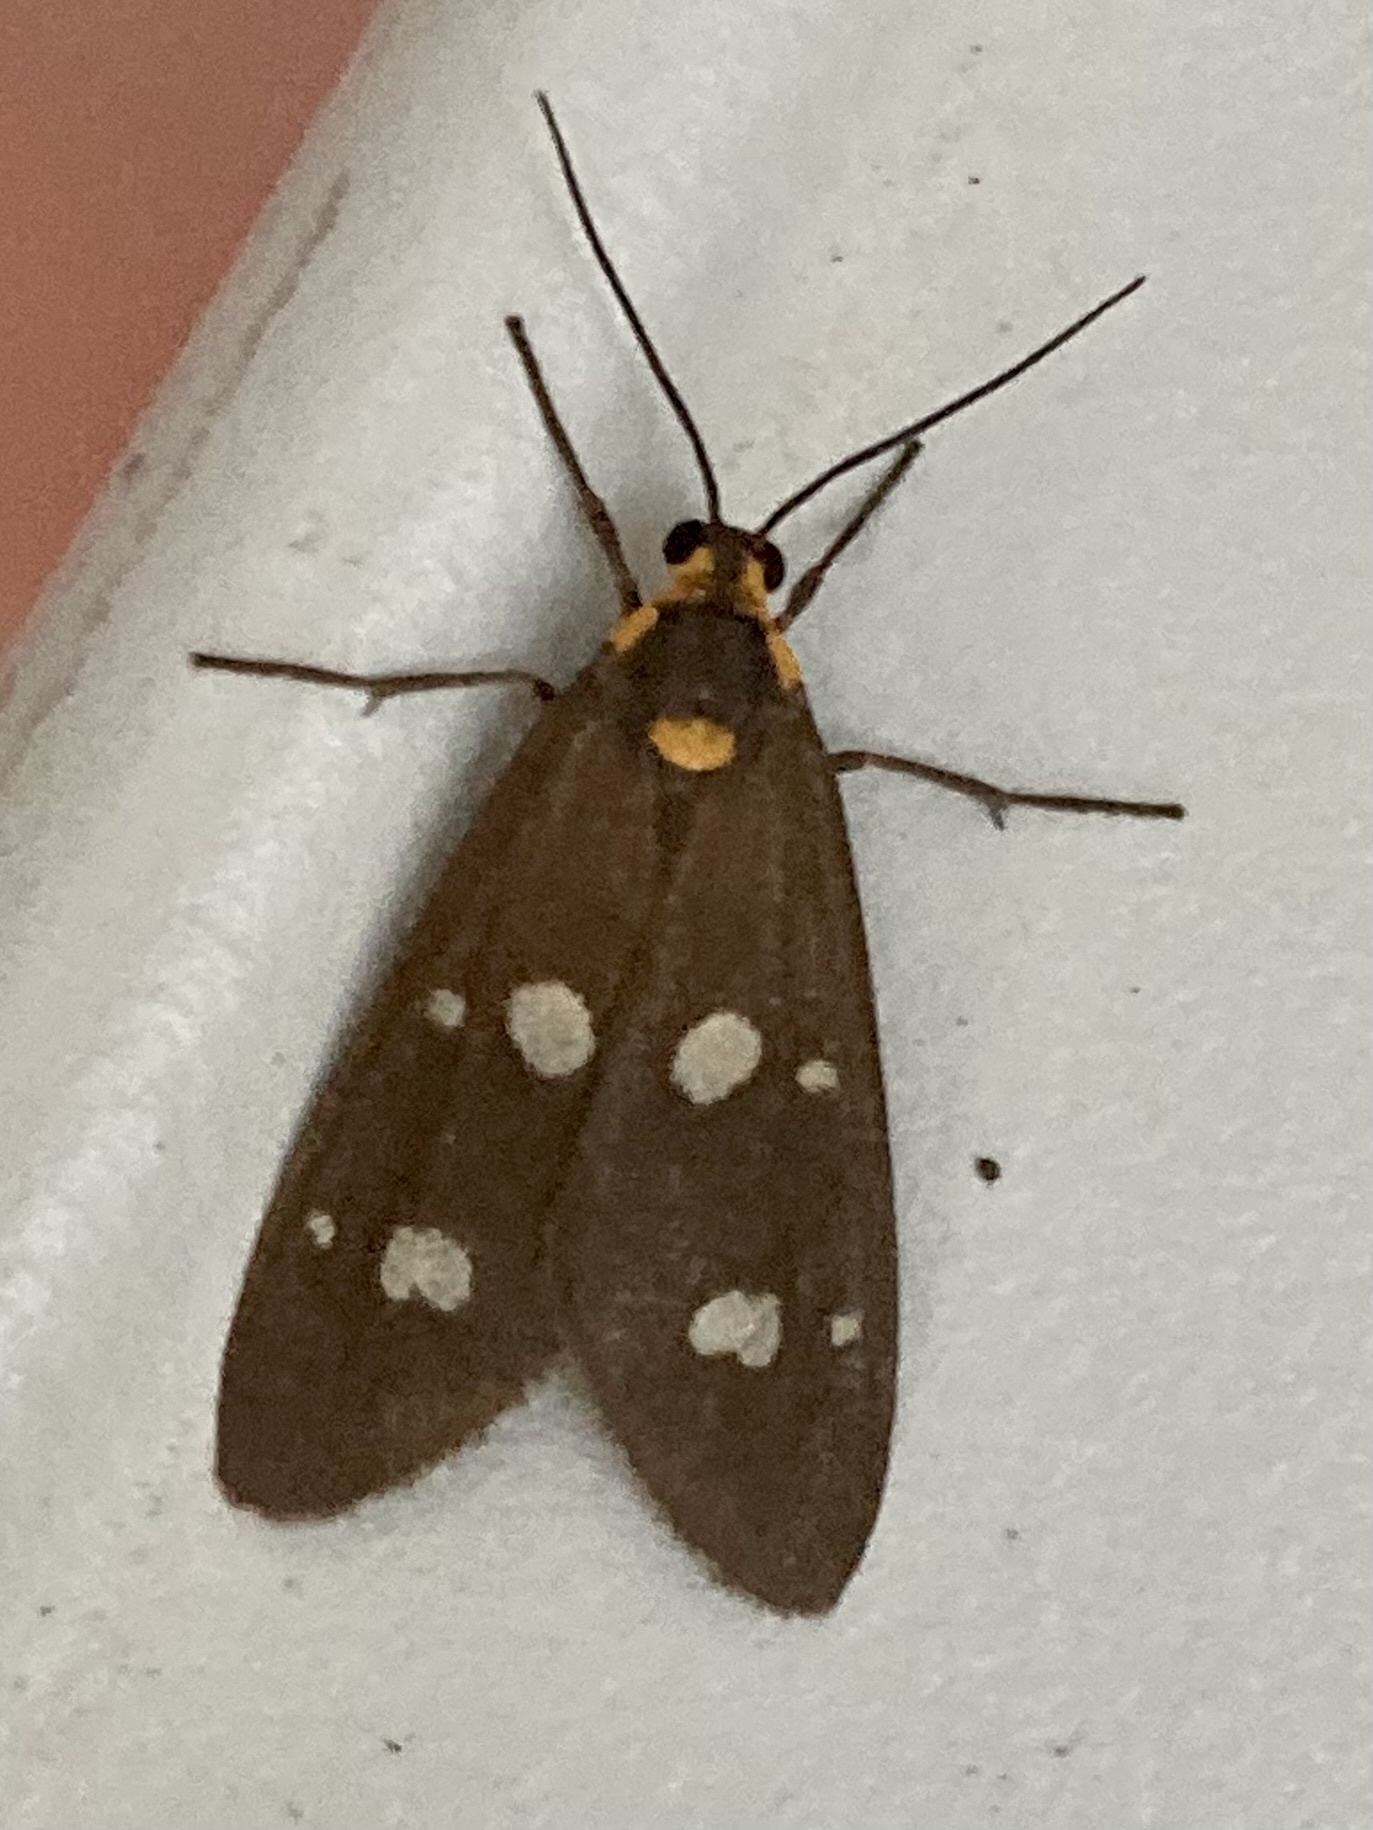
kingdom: Animalia
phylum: Arthropoda
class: Insecta
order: Lepidoptera
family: Erebidae
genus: Dysauxes
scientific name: Dysauxes punctata
